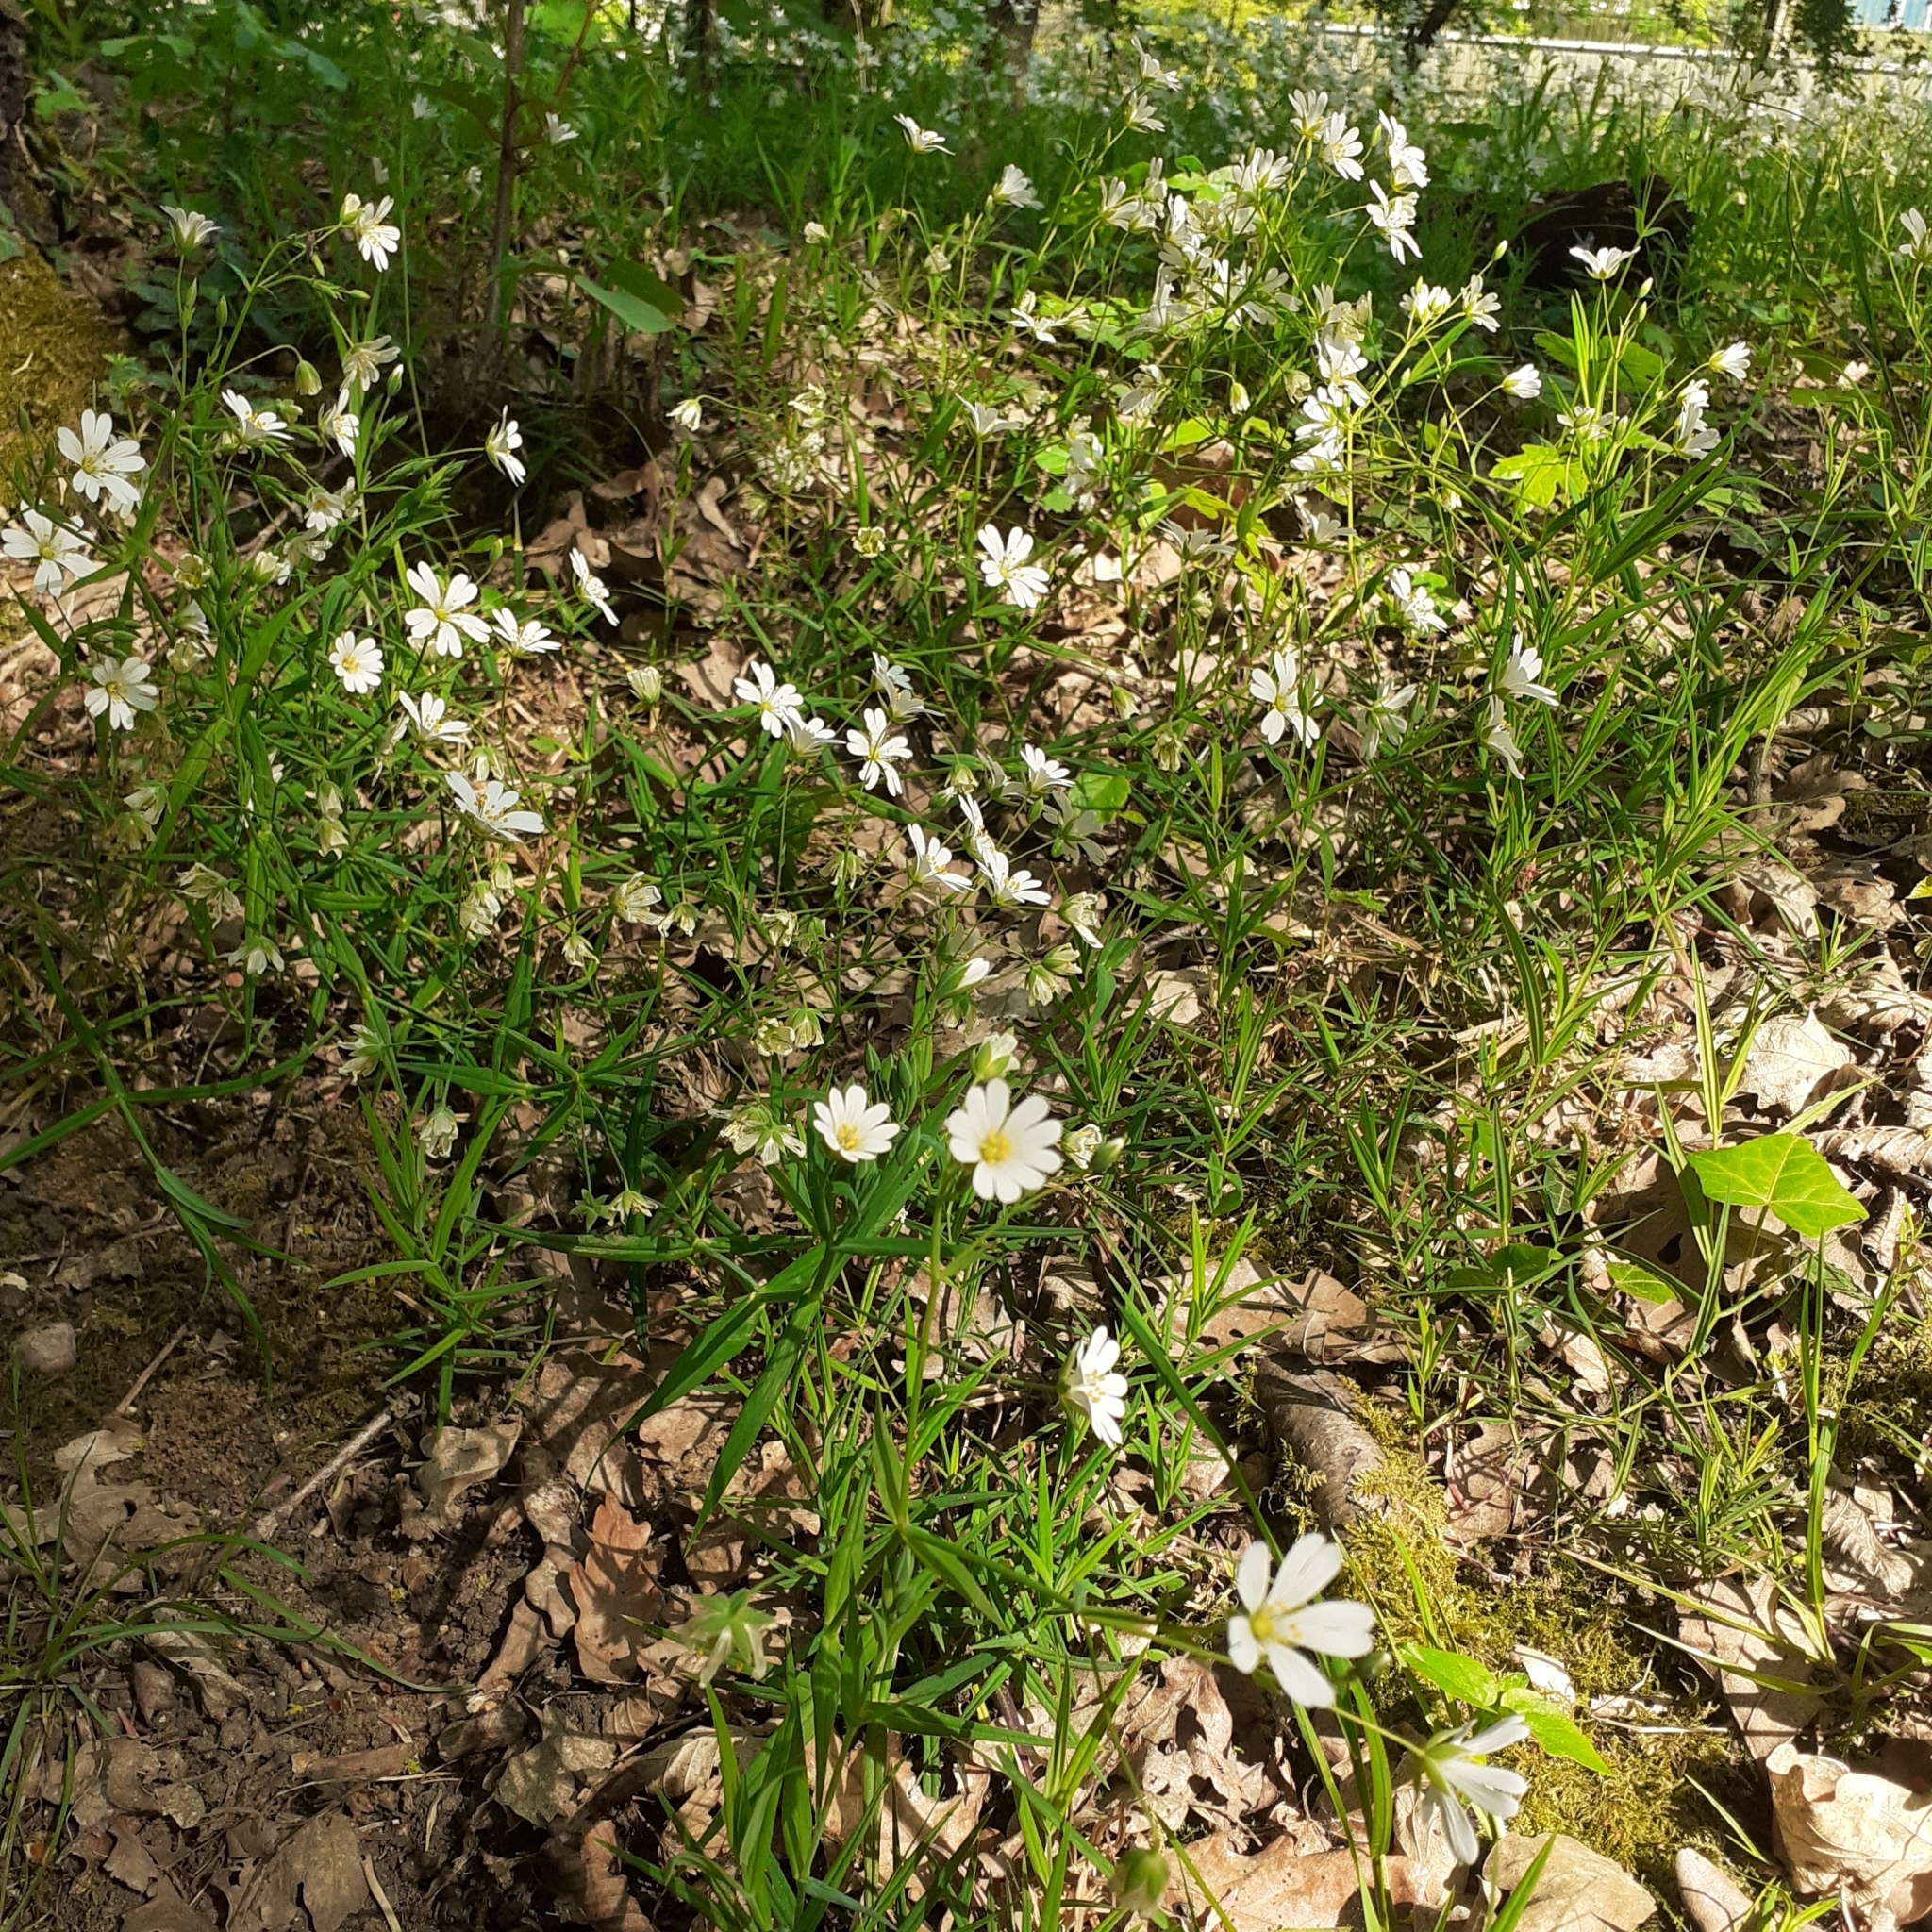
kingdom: Plantae
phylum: Tracheophyta
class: Magnoliopsida
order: Caryophyllales
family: Caryophyllaceae
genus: Rabelera
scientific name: Rabelera holostea
